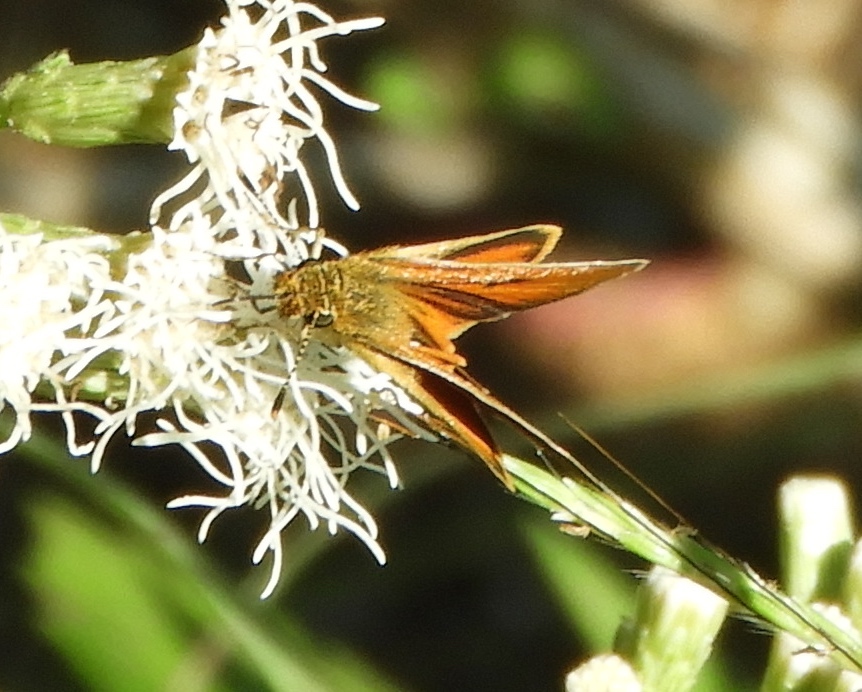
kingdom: Animalia
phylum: Arthropoda
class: Insecta
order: Lepidoptera
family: Hesperiidae
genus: Ancyloxypha
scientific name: Ancyloxypha arene
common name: Tropical least skipper
